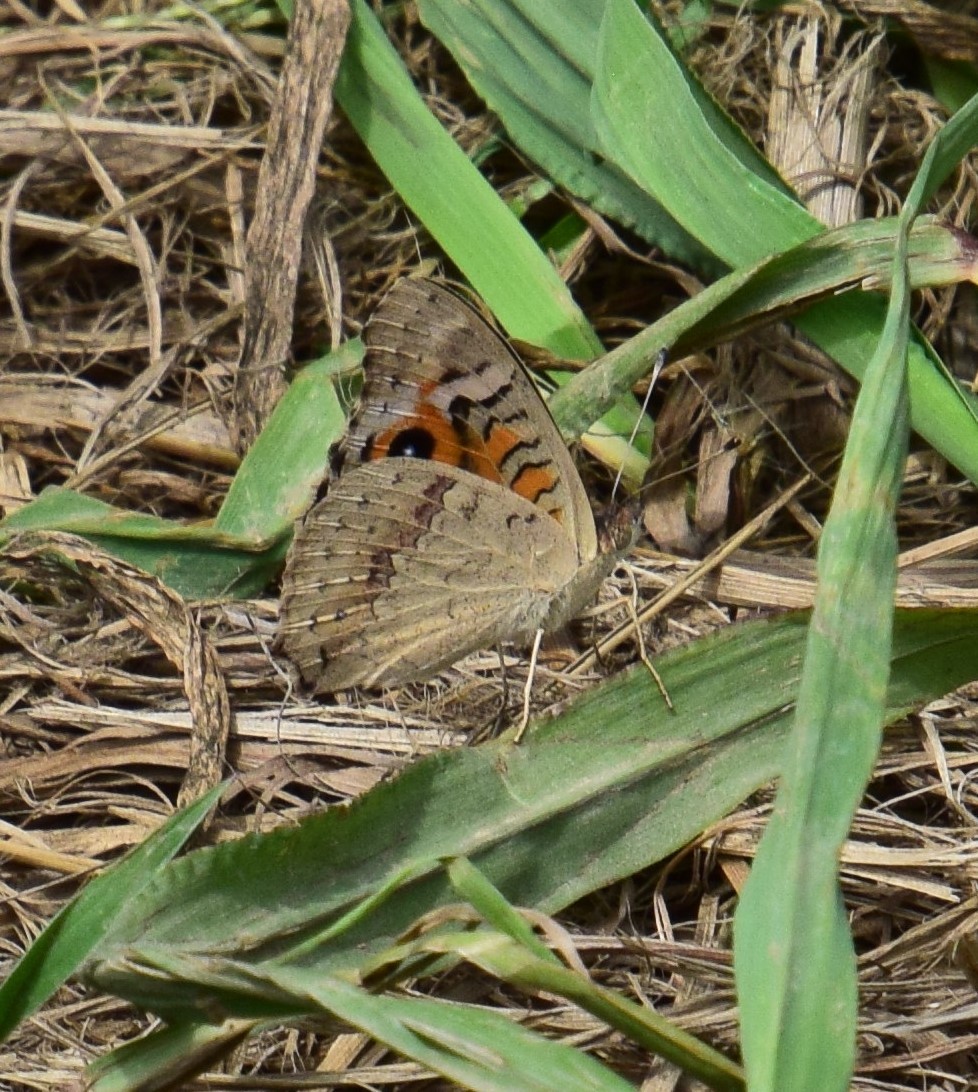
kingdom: Animalia
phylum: Arthropoda
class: Insecta
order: Lepidoptera
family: Nymphalidae
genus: Junonia
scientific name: Junonia villida
